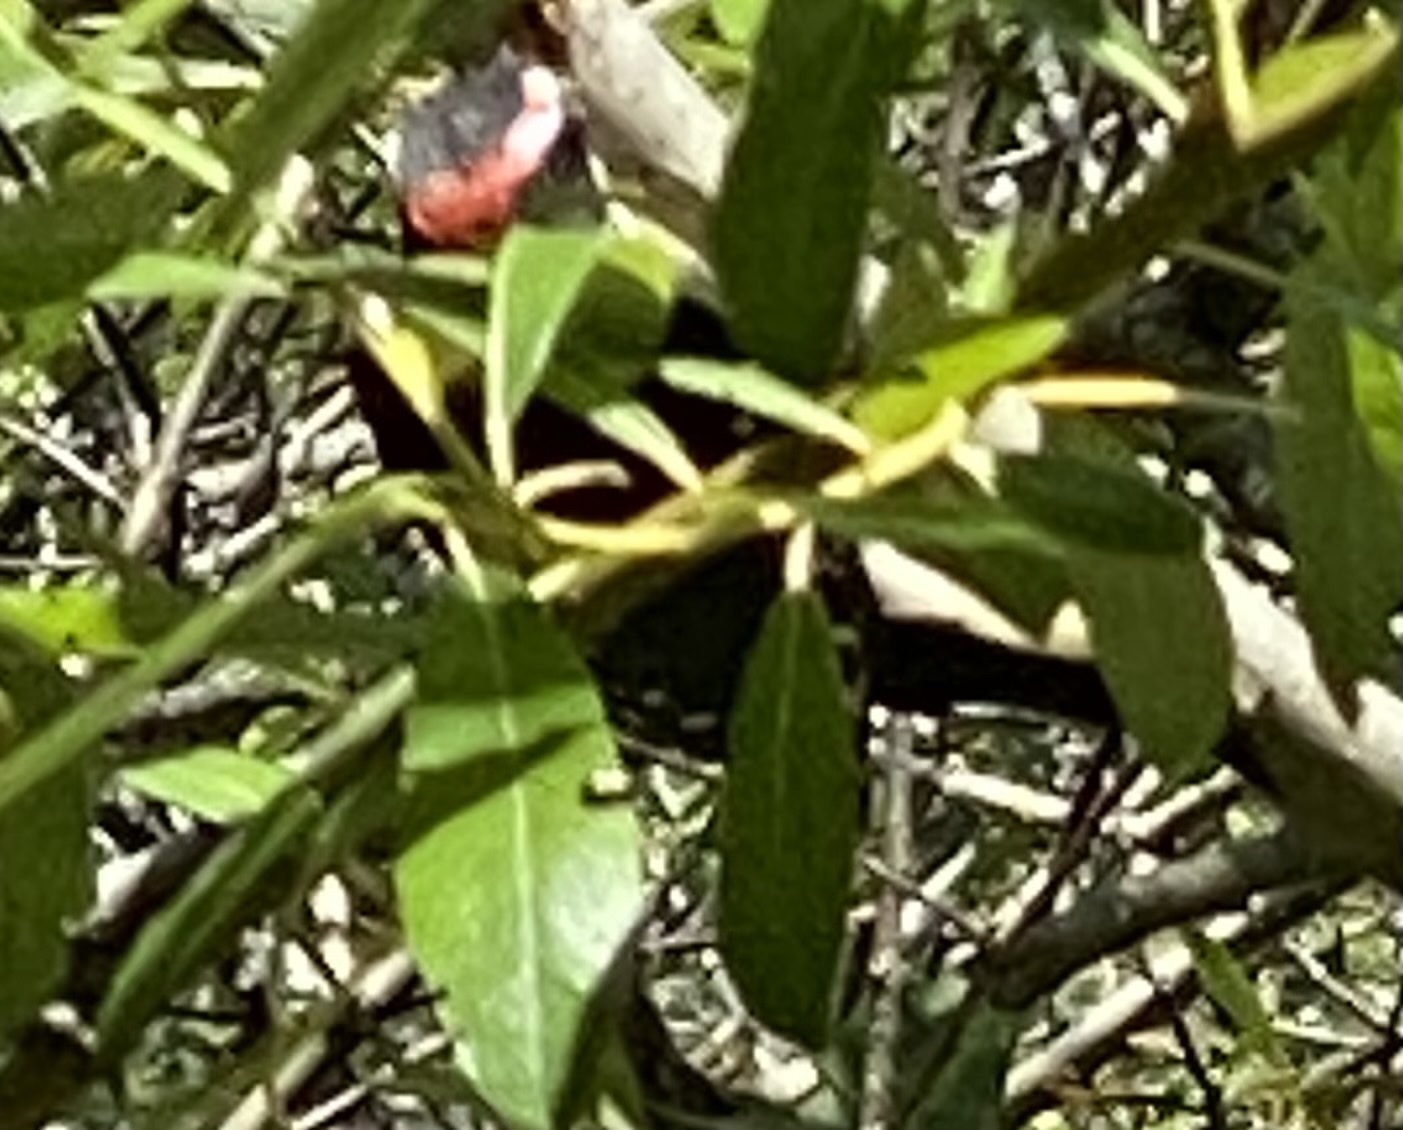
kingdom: Animalia
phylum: Chordata
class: Aves
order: Piciformes
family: Picidae
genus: Dryobates
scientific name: Dryobates
